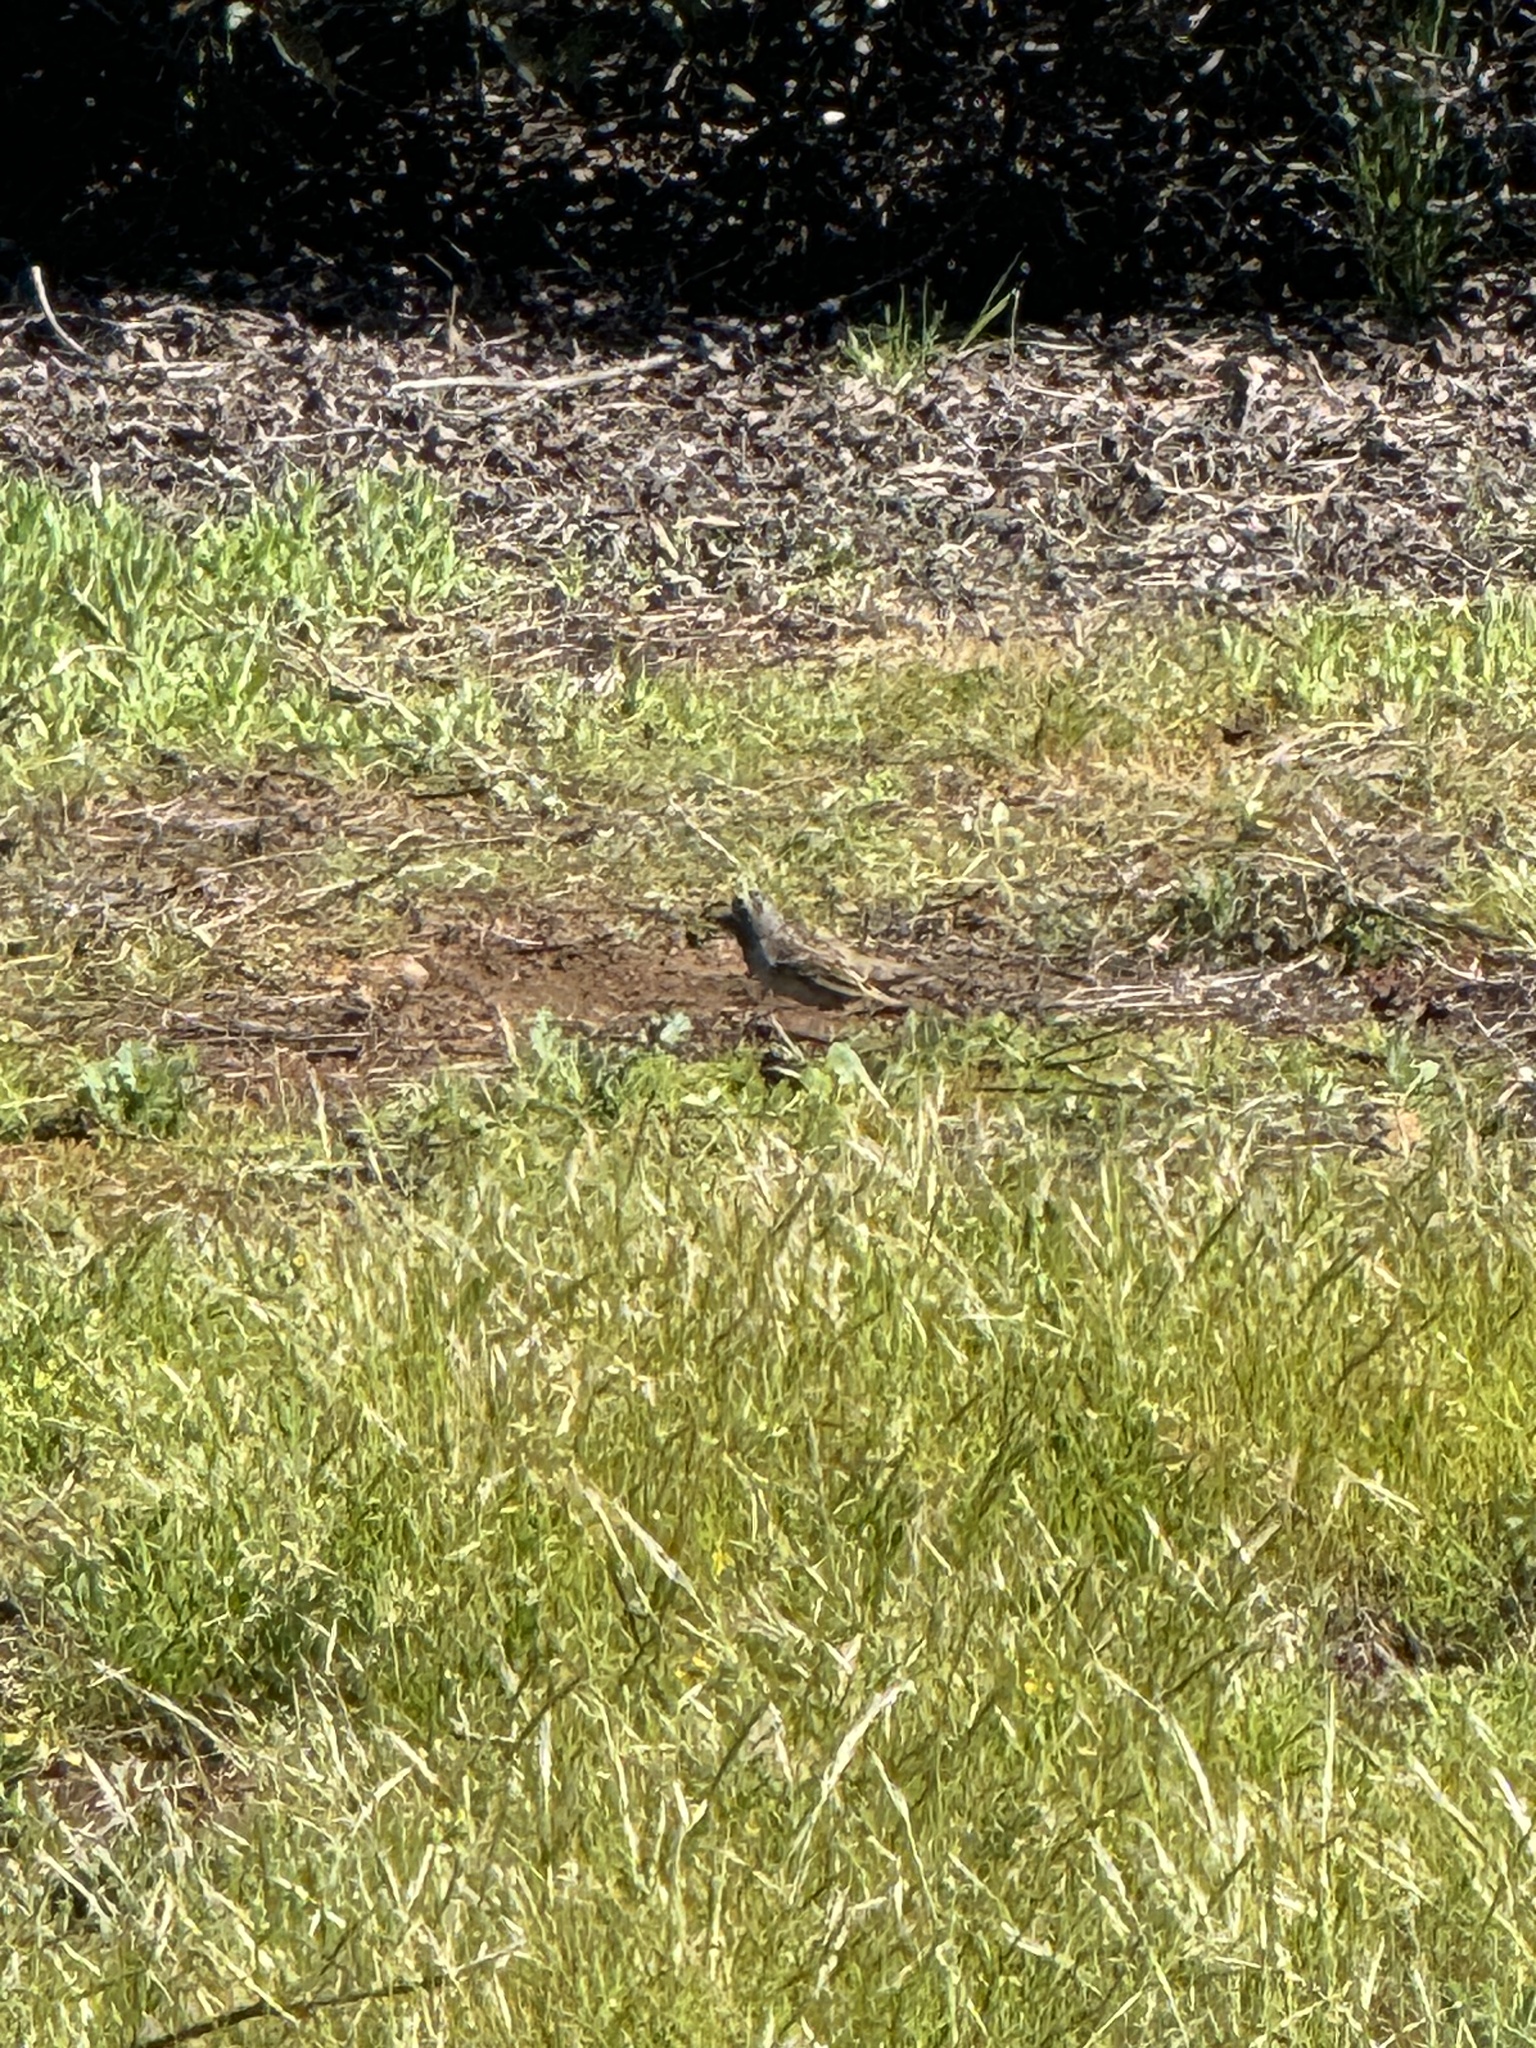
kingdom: Animalia
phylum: Chordata
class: Aves
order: Passeriformes
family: Passerellidae
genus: Zonotrichia
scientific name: Zonotrichia leucophrys
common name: White-crowned sparrow
